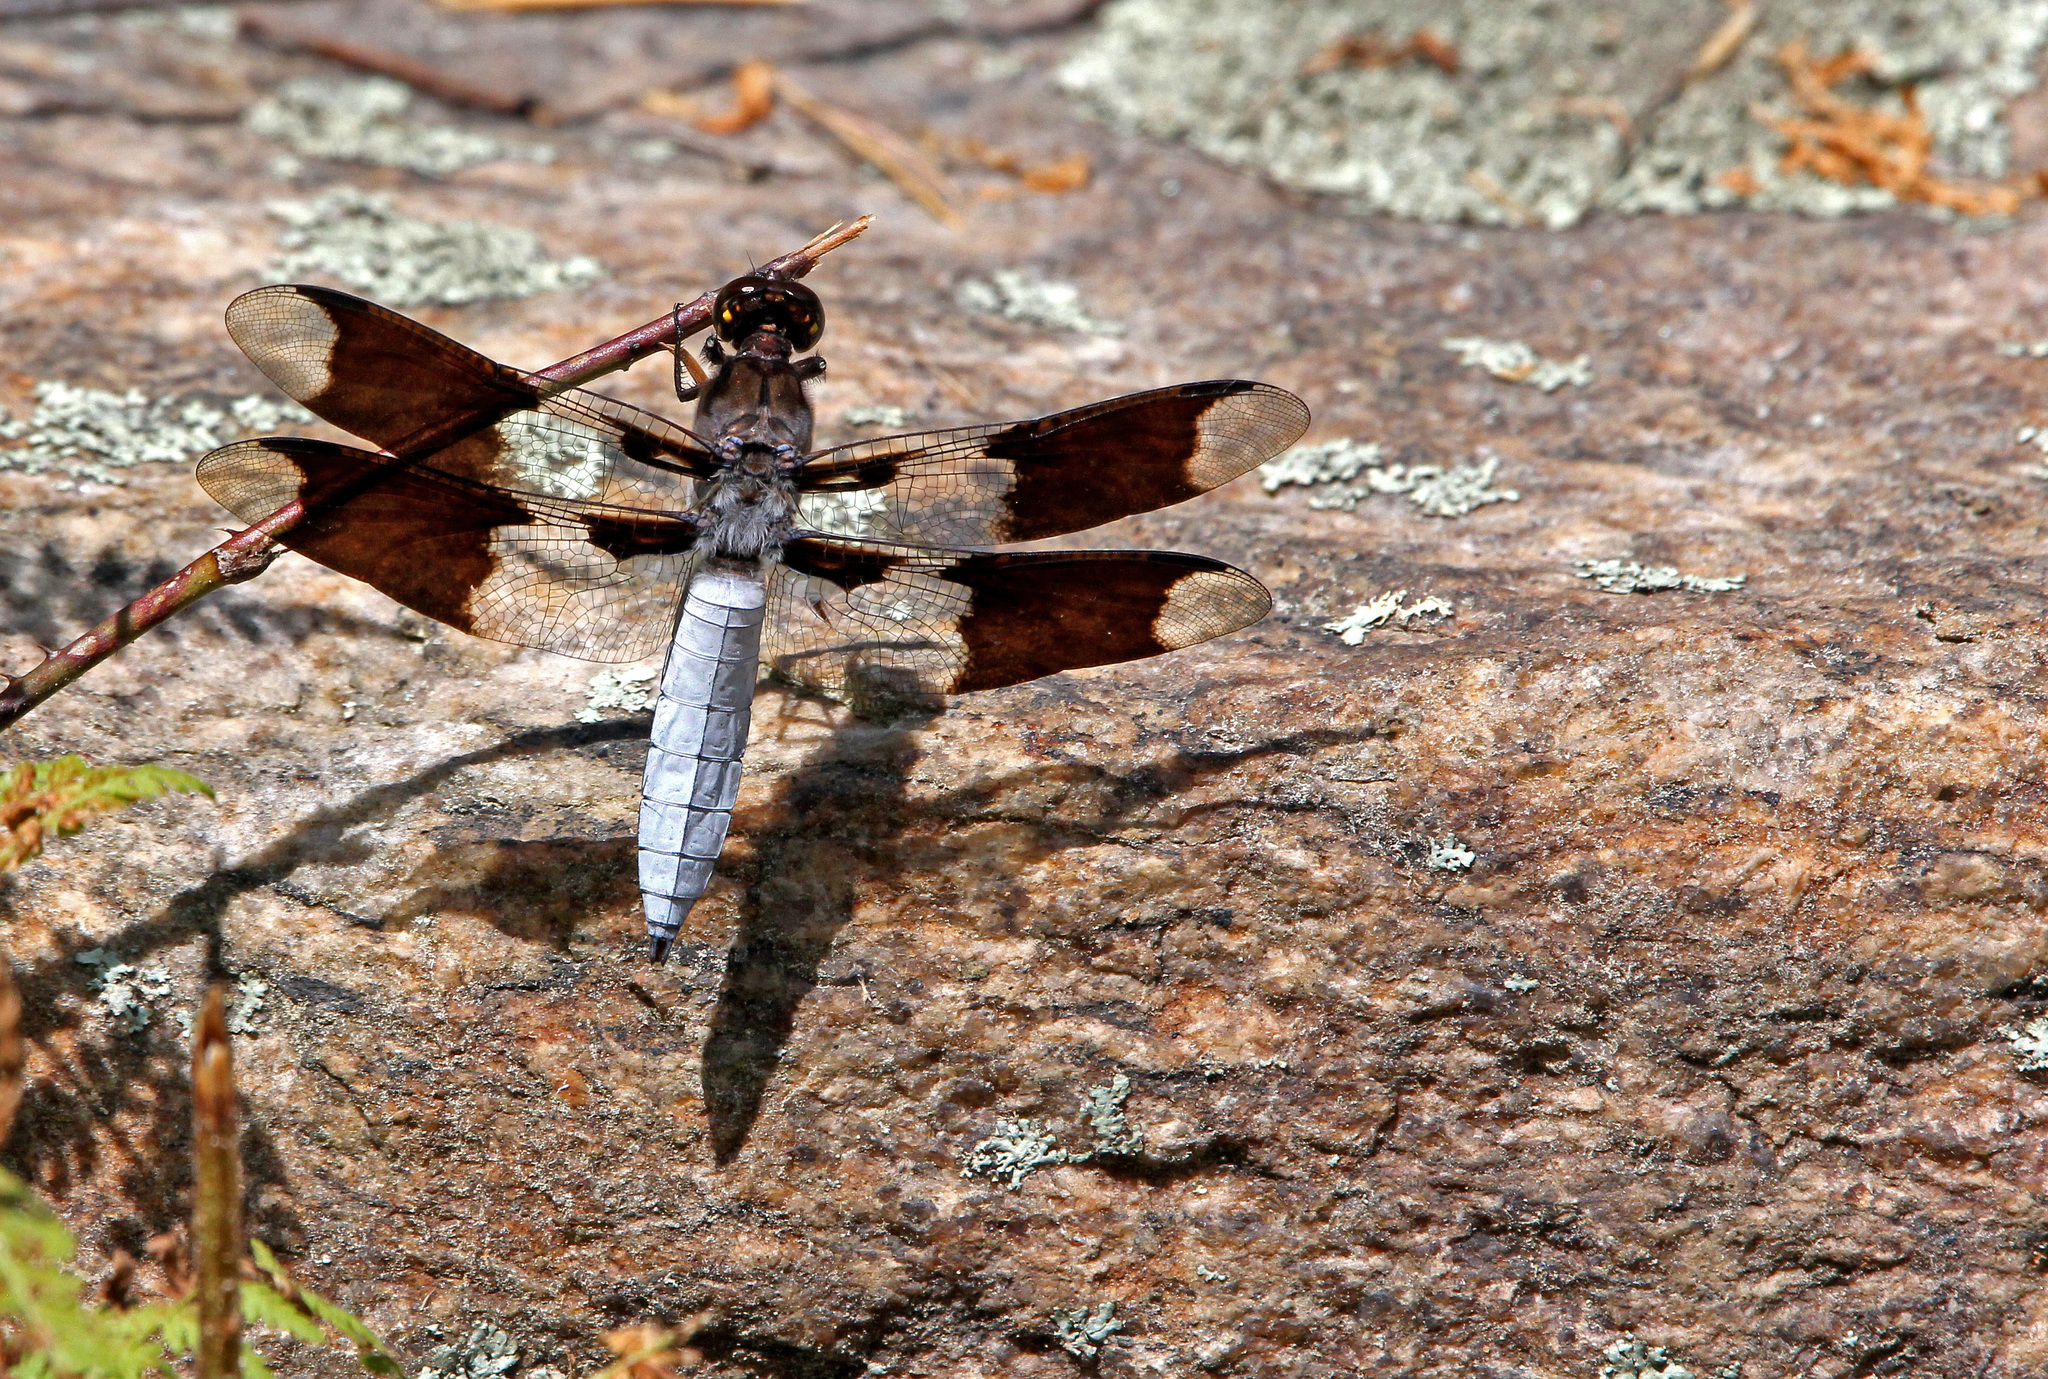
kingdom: Animalia
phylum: Arthropoda
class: Insecta
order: Odonata
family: Libellulidae
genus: Plathemis
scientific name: Plathemis lydia
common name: Common whitetail
